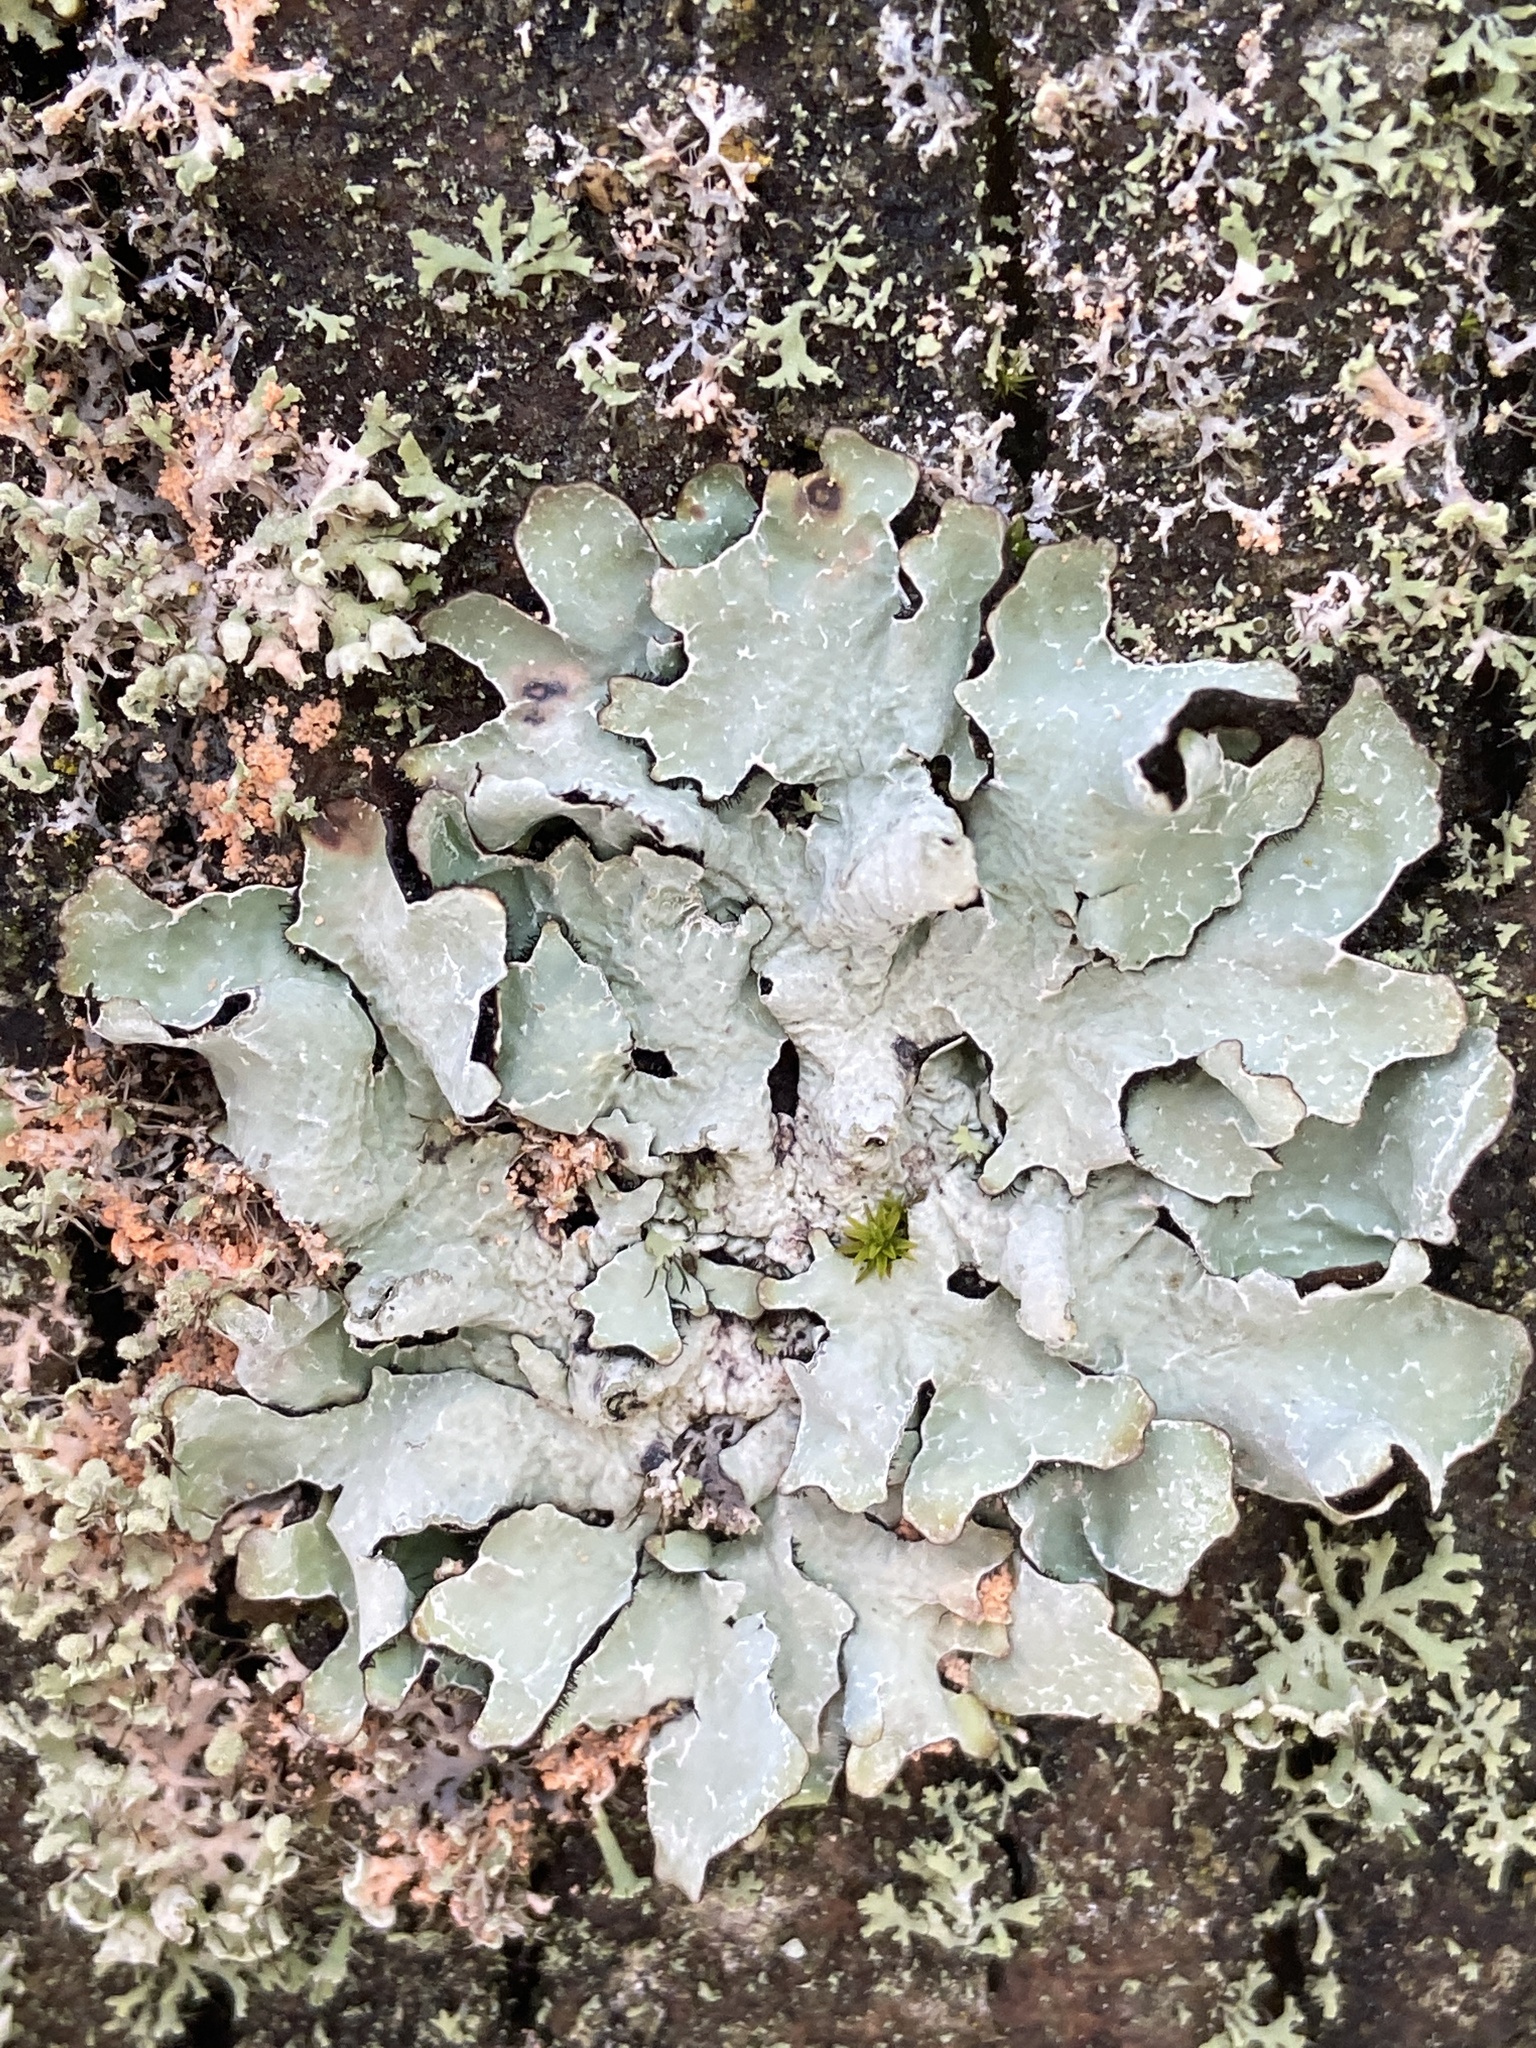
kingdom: Fungi
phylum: Ascomycota
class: Lecanoromycetes
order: Lecanorales
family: Parmeliaceae
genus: Parmelia
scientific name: Parmelia sulcata
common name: Netted shield lichen
